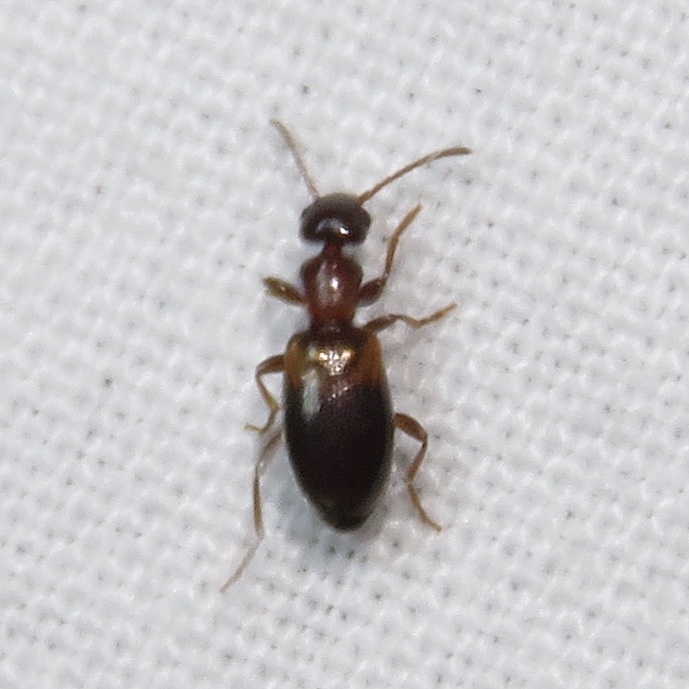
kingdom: Animalia
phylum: Arthropoda
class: Insecta
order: Coleoptera
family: Anthicidae
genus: Omonadus
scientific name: Omonadus floralis
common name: Narrownecked grain beetle
